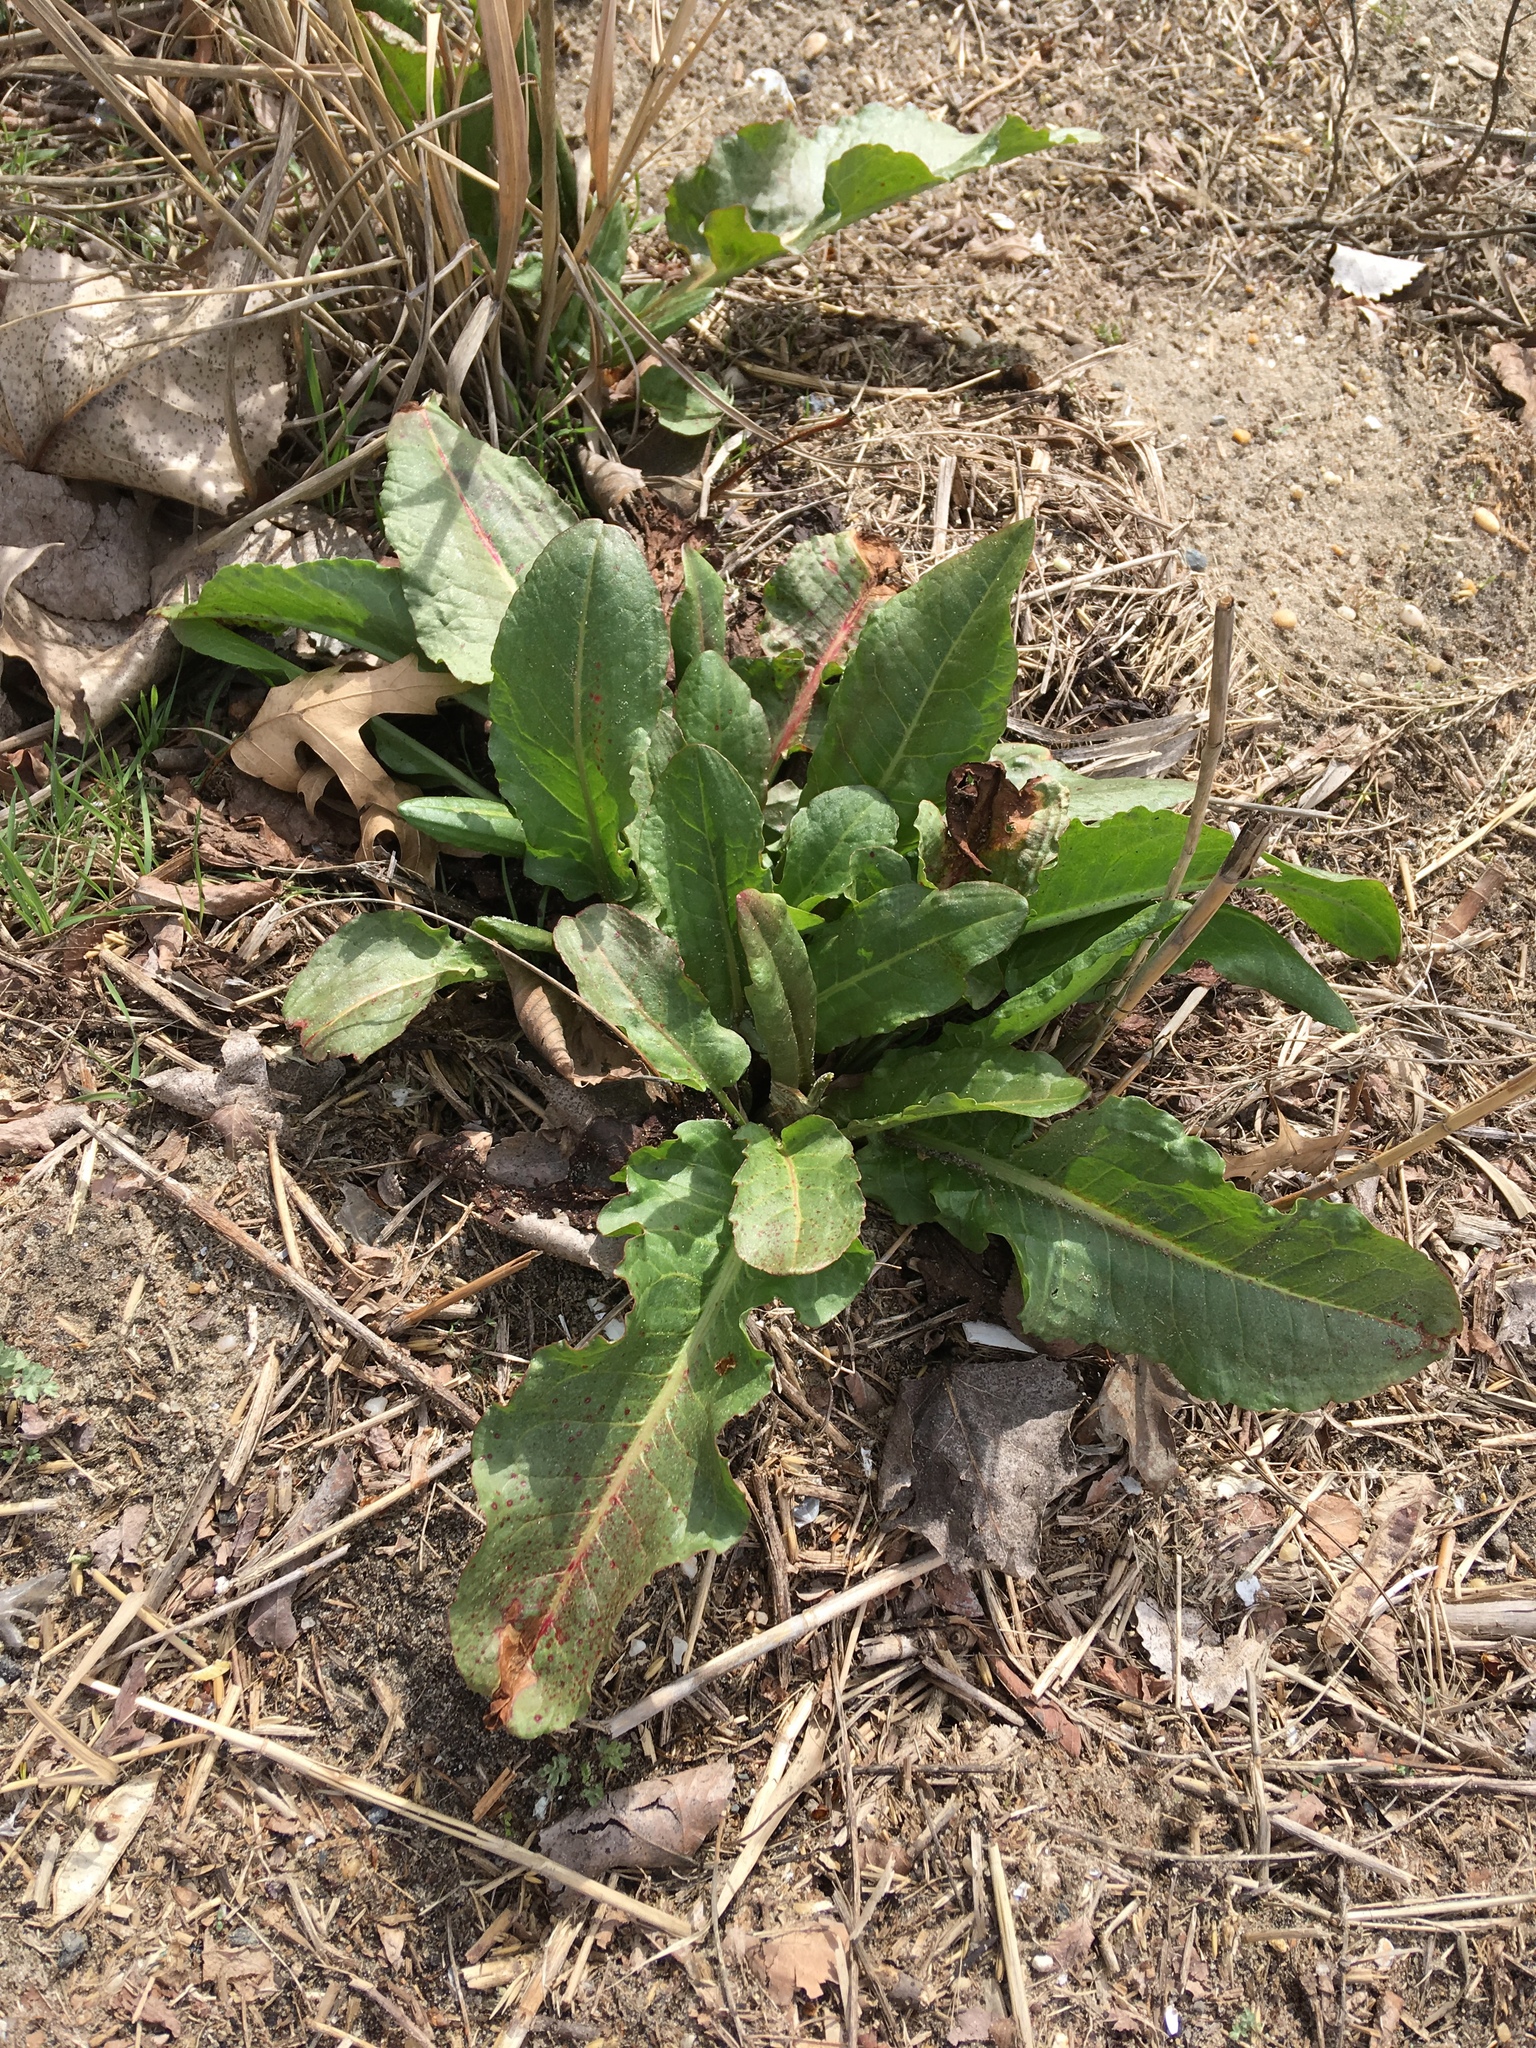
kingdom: Plantae
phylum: Tracheophyta
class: Magnoliopsida
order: Caryophyllales
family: Polygonaceae
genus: Rumex
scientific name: Rumex obtusifolius
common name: Bitter dock
